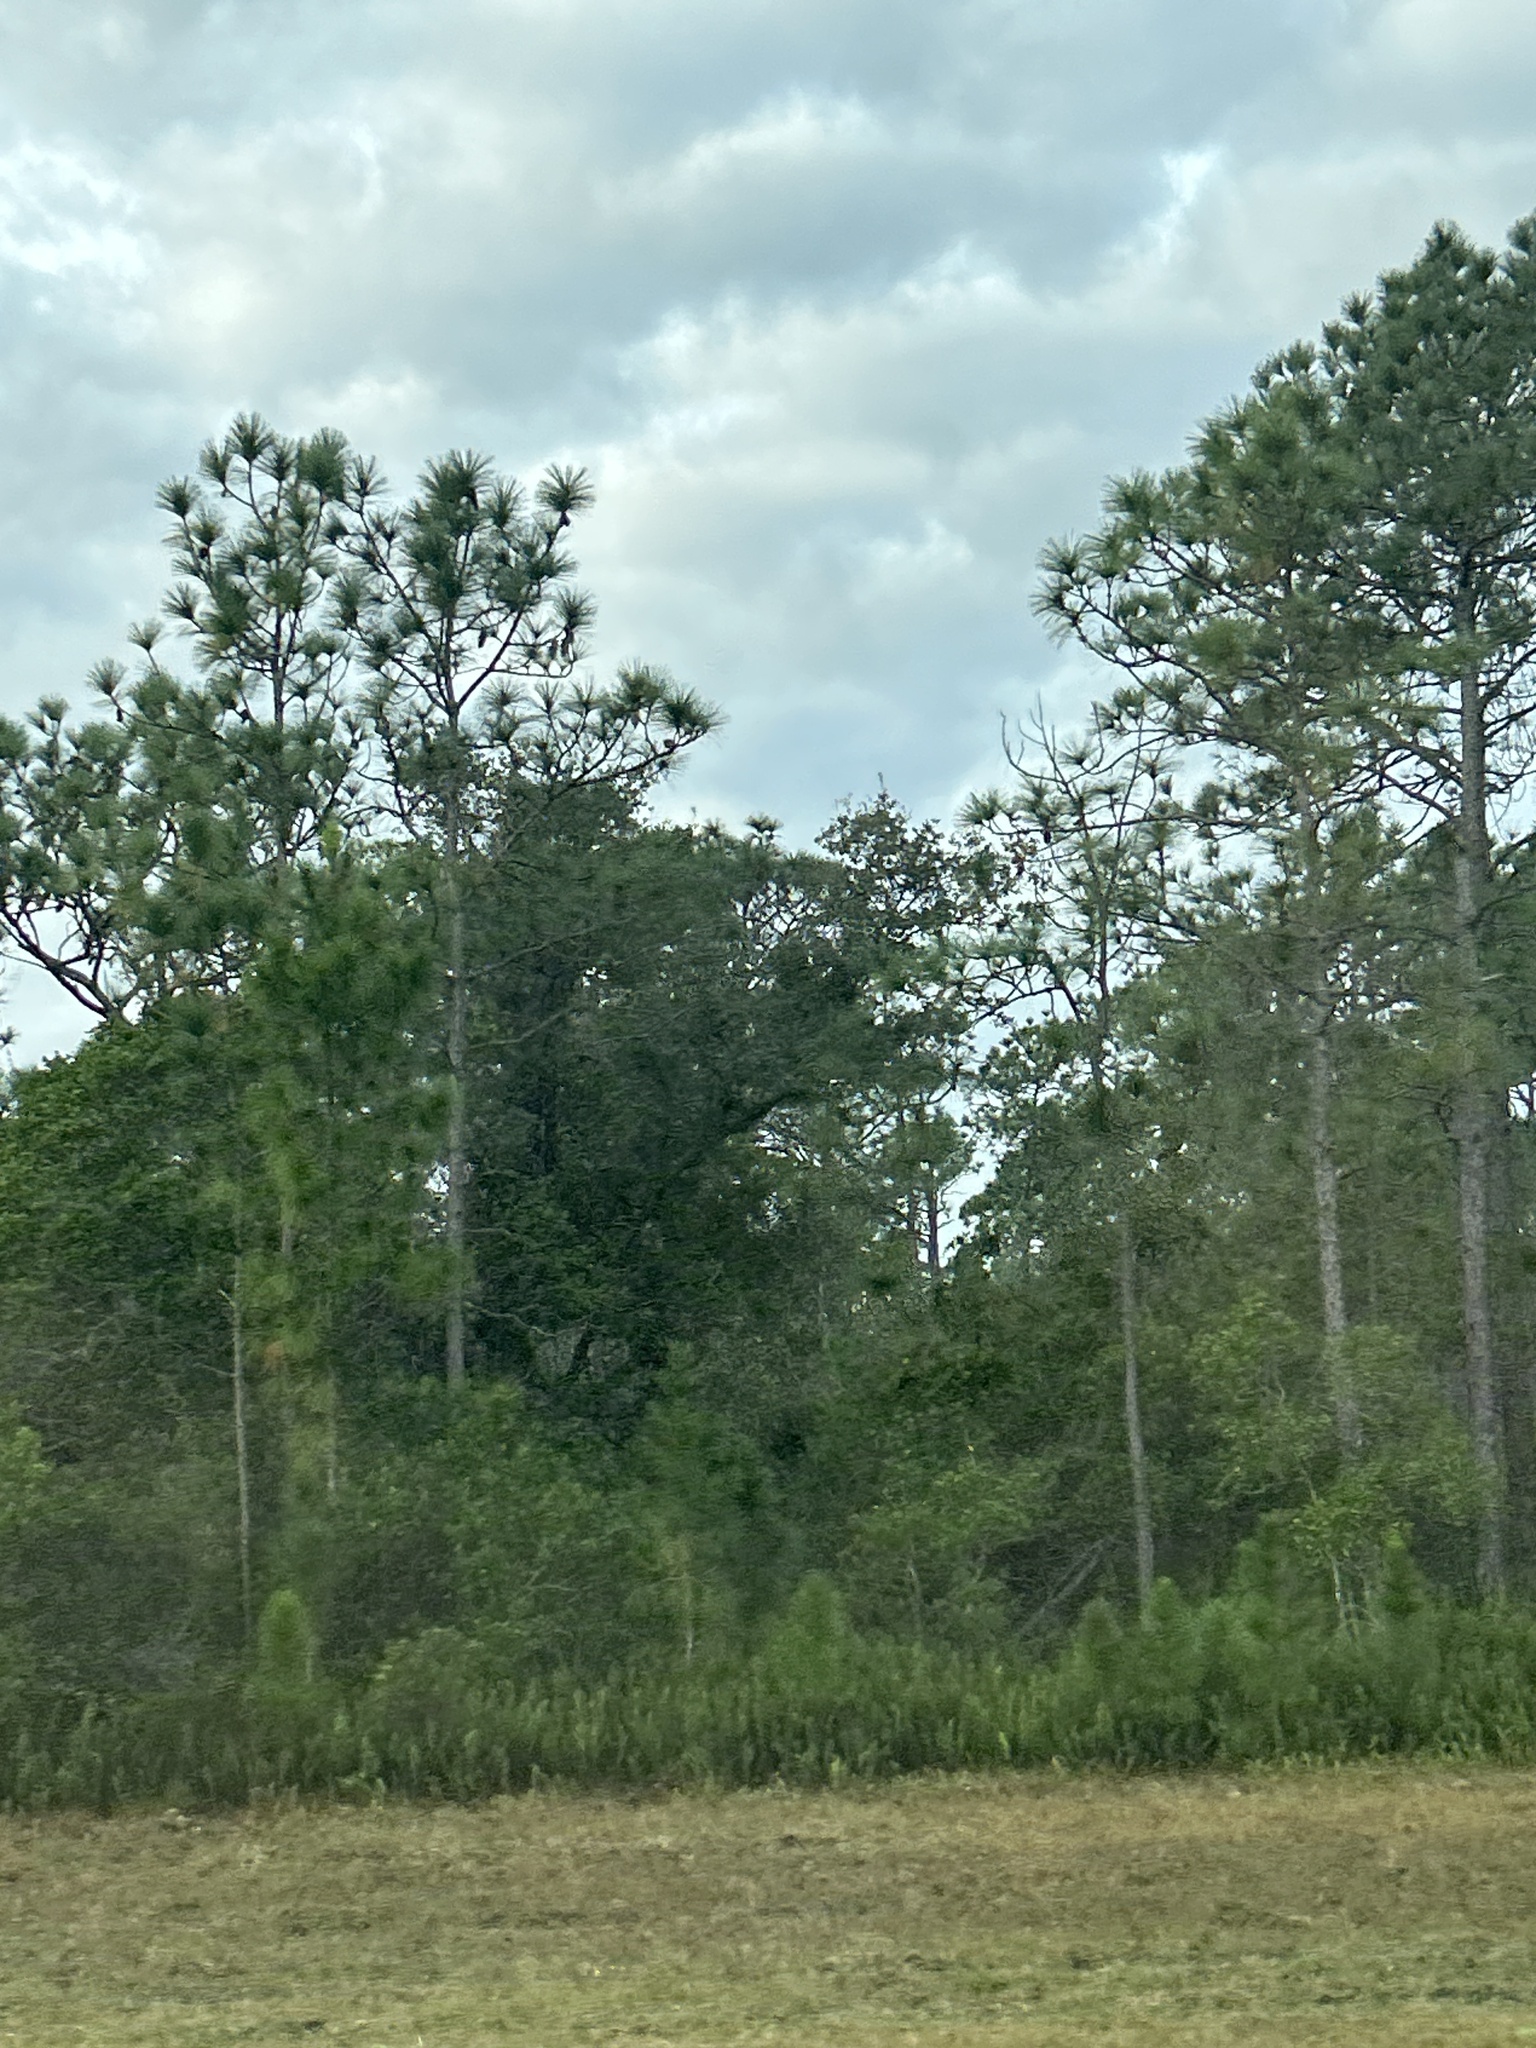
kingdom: Plantae
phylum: Tracheophyta
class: Pinopsida
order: Pinales
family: Pinaceae
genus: Pinus
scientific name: Pinus palustris
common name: Longleaf pine
